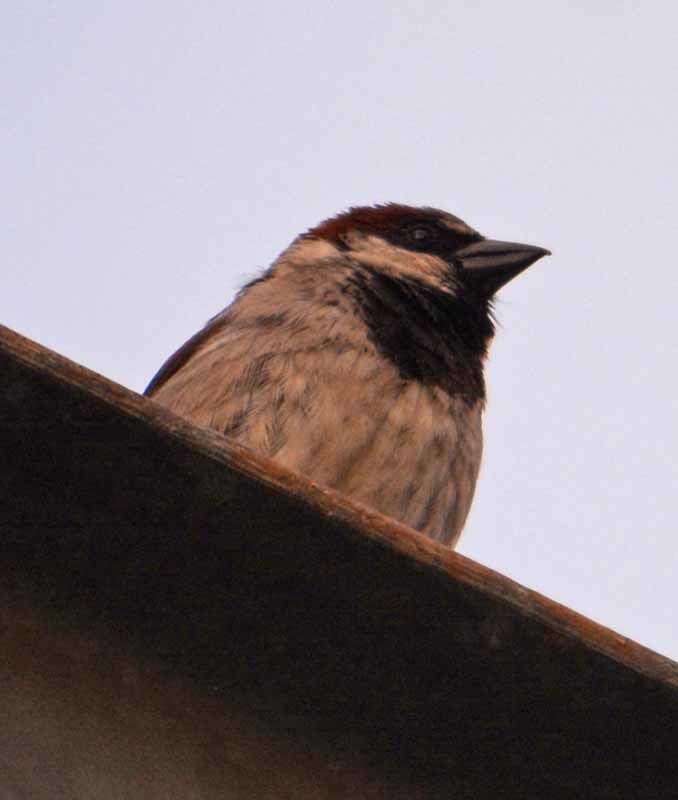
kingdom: Animalia
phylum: Chordata
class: Aves
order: Passeriformes
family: Passeridae
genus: Passer
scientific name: Passer domesticus
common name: House sparrow
